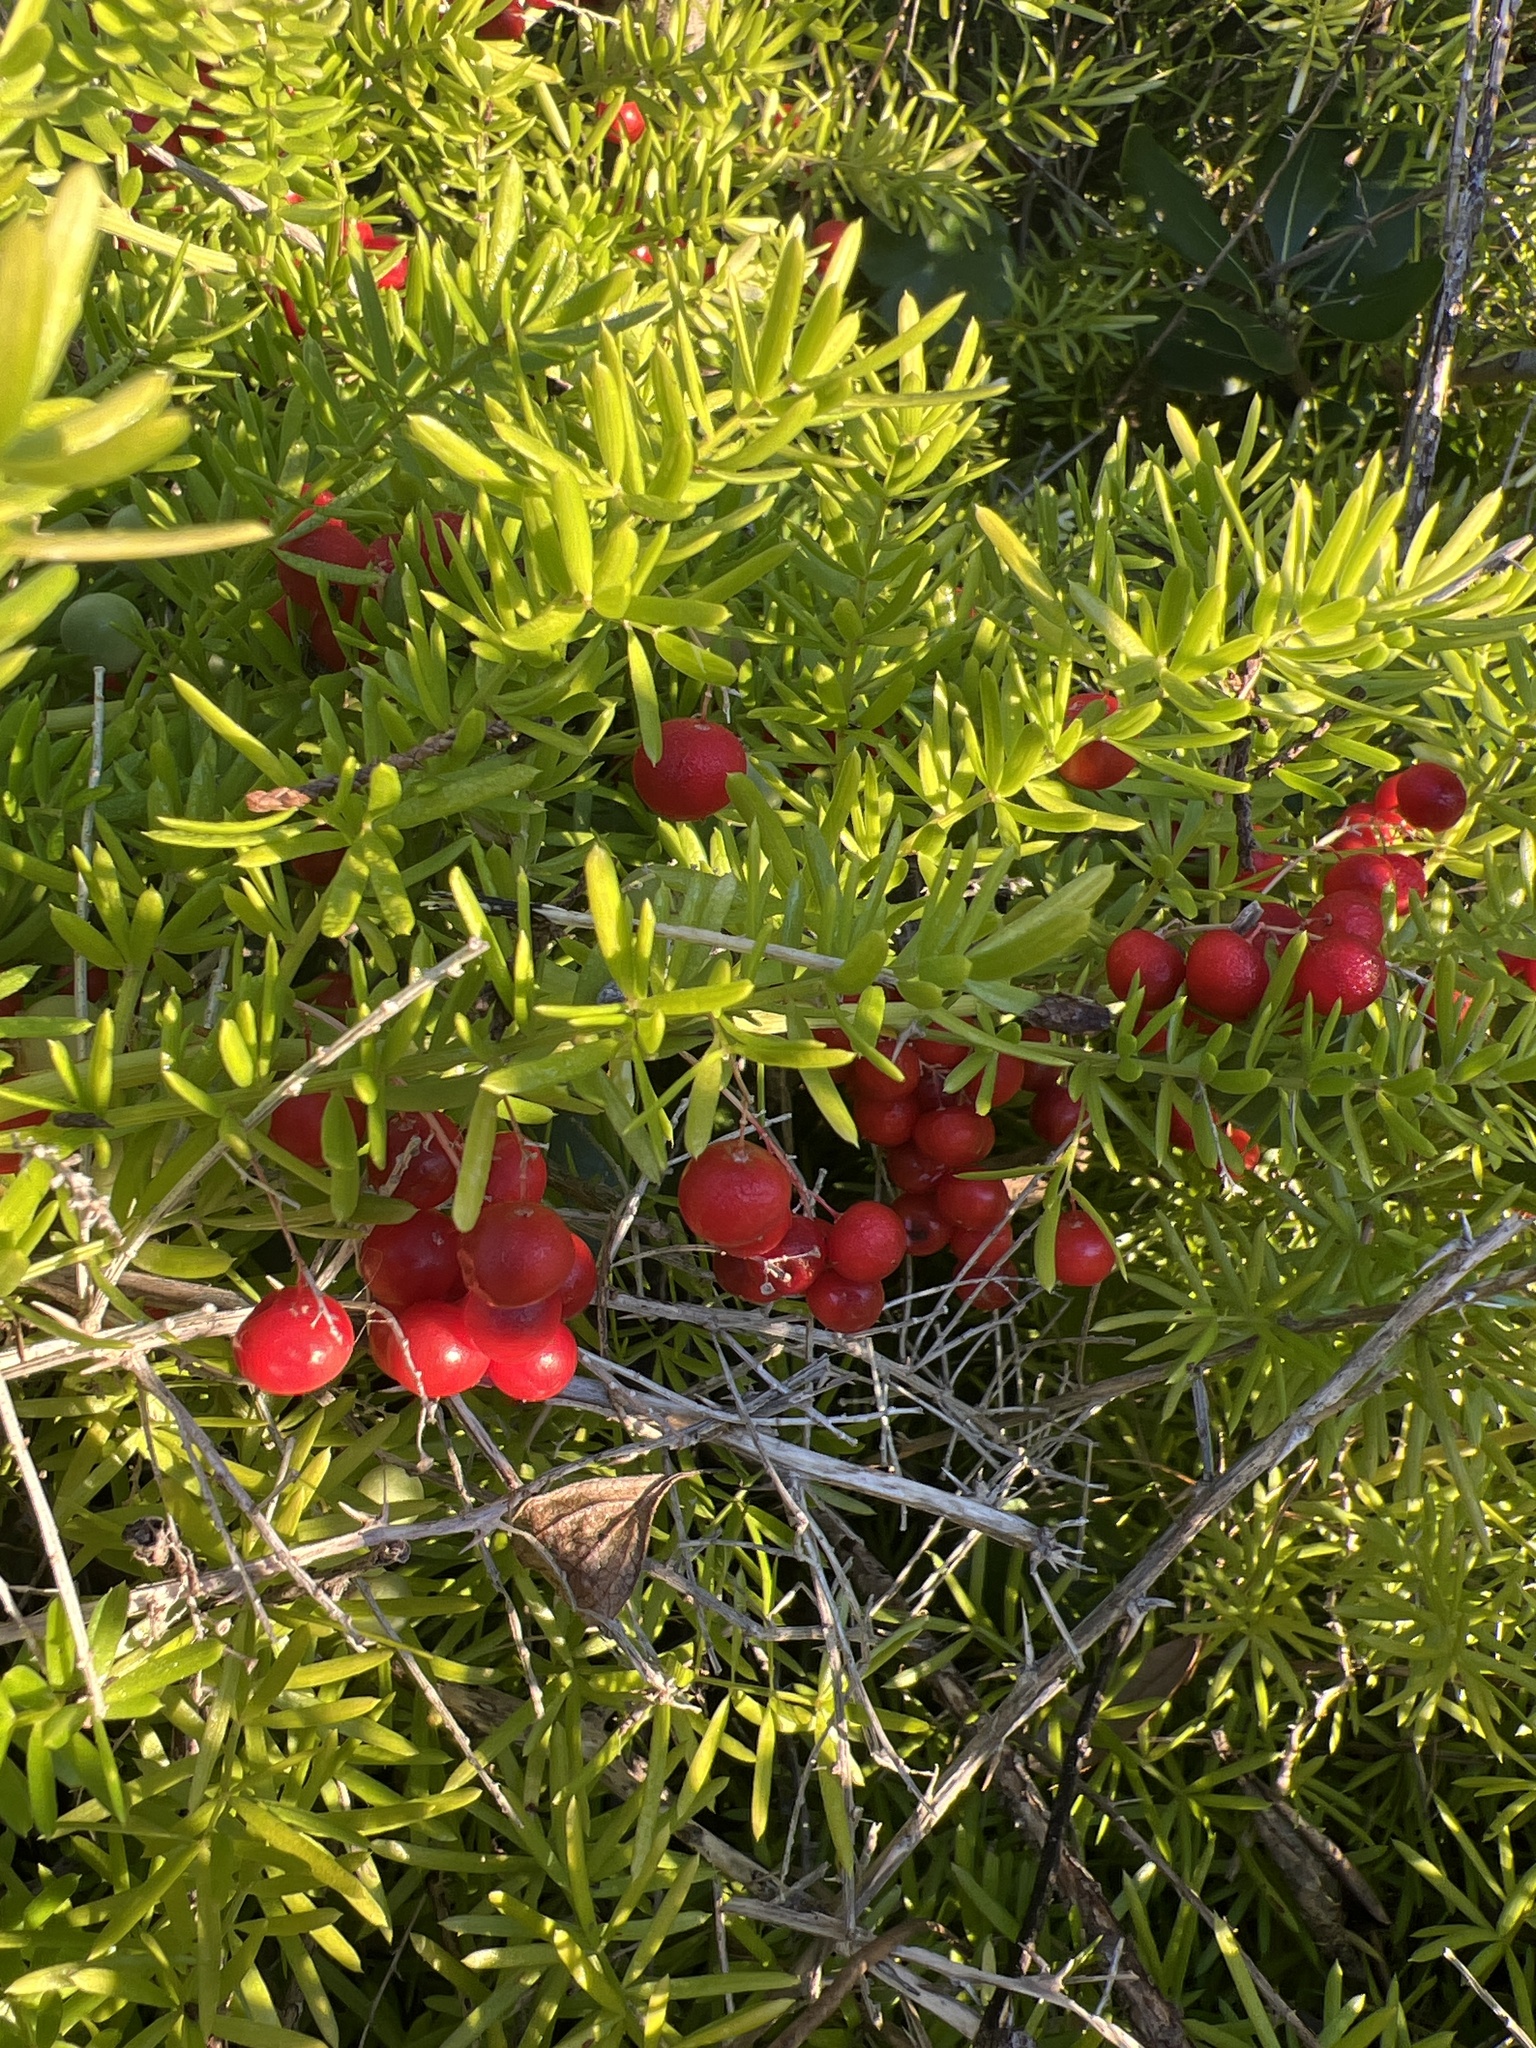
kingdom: Plantae
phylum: Tracheophyta
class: Liliopsida
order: Asparagales
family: Asparagaceae
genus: Asparagus
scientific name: Asparagus aethiopicus
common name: Sprenger's asparagus fern
